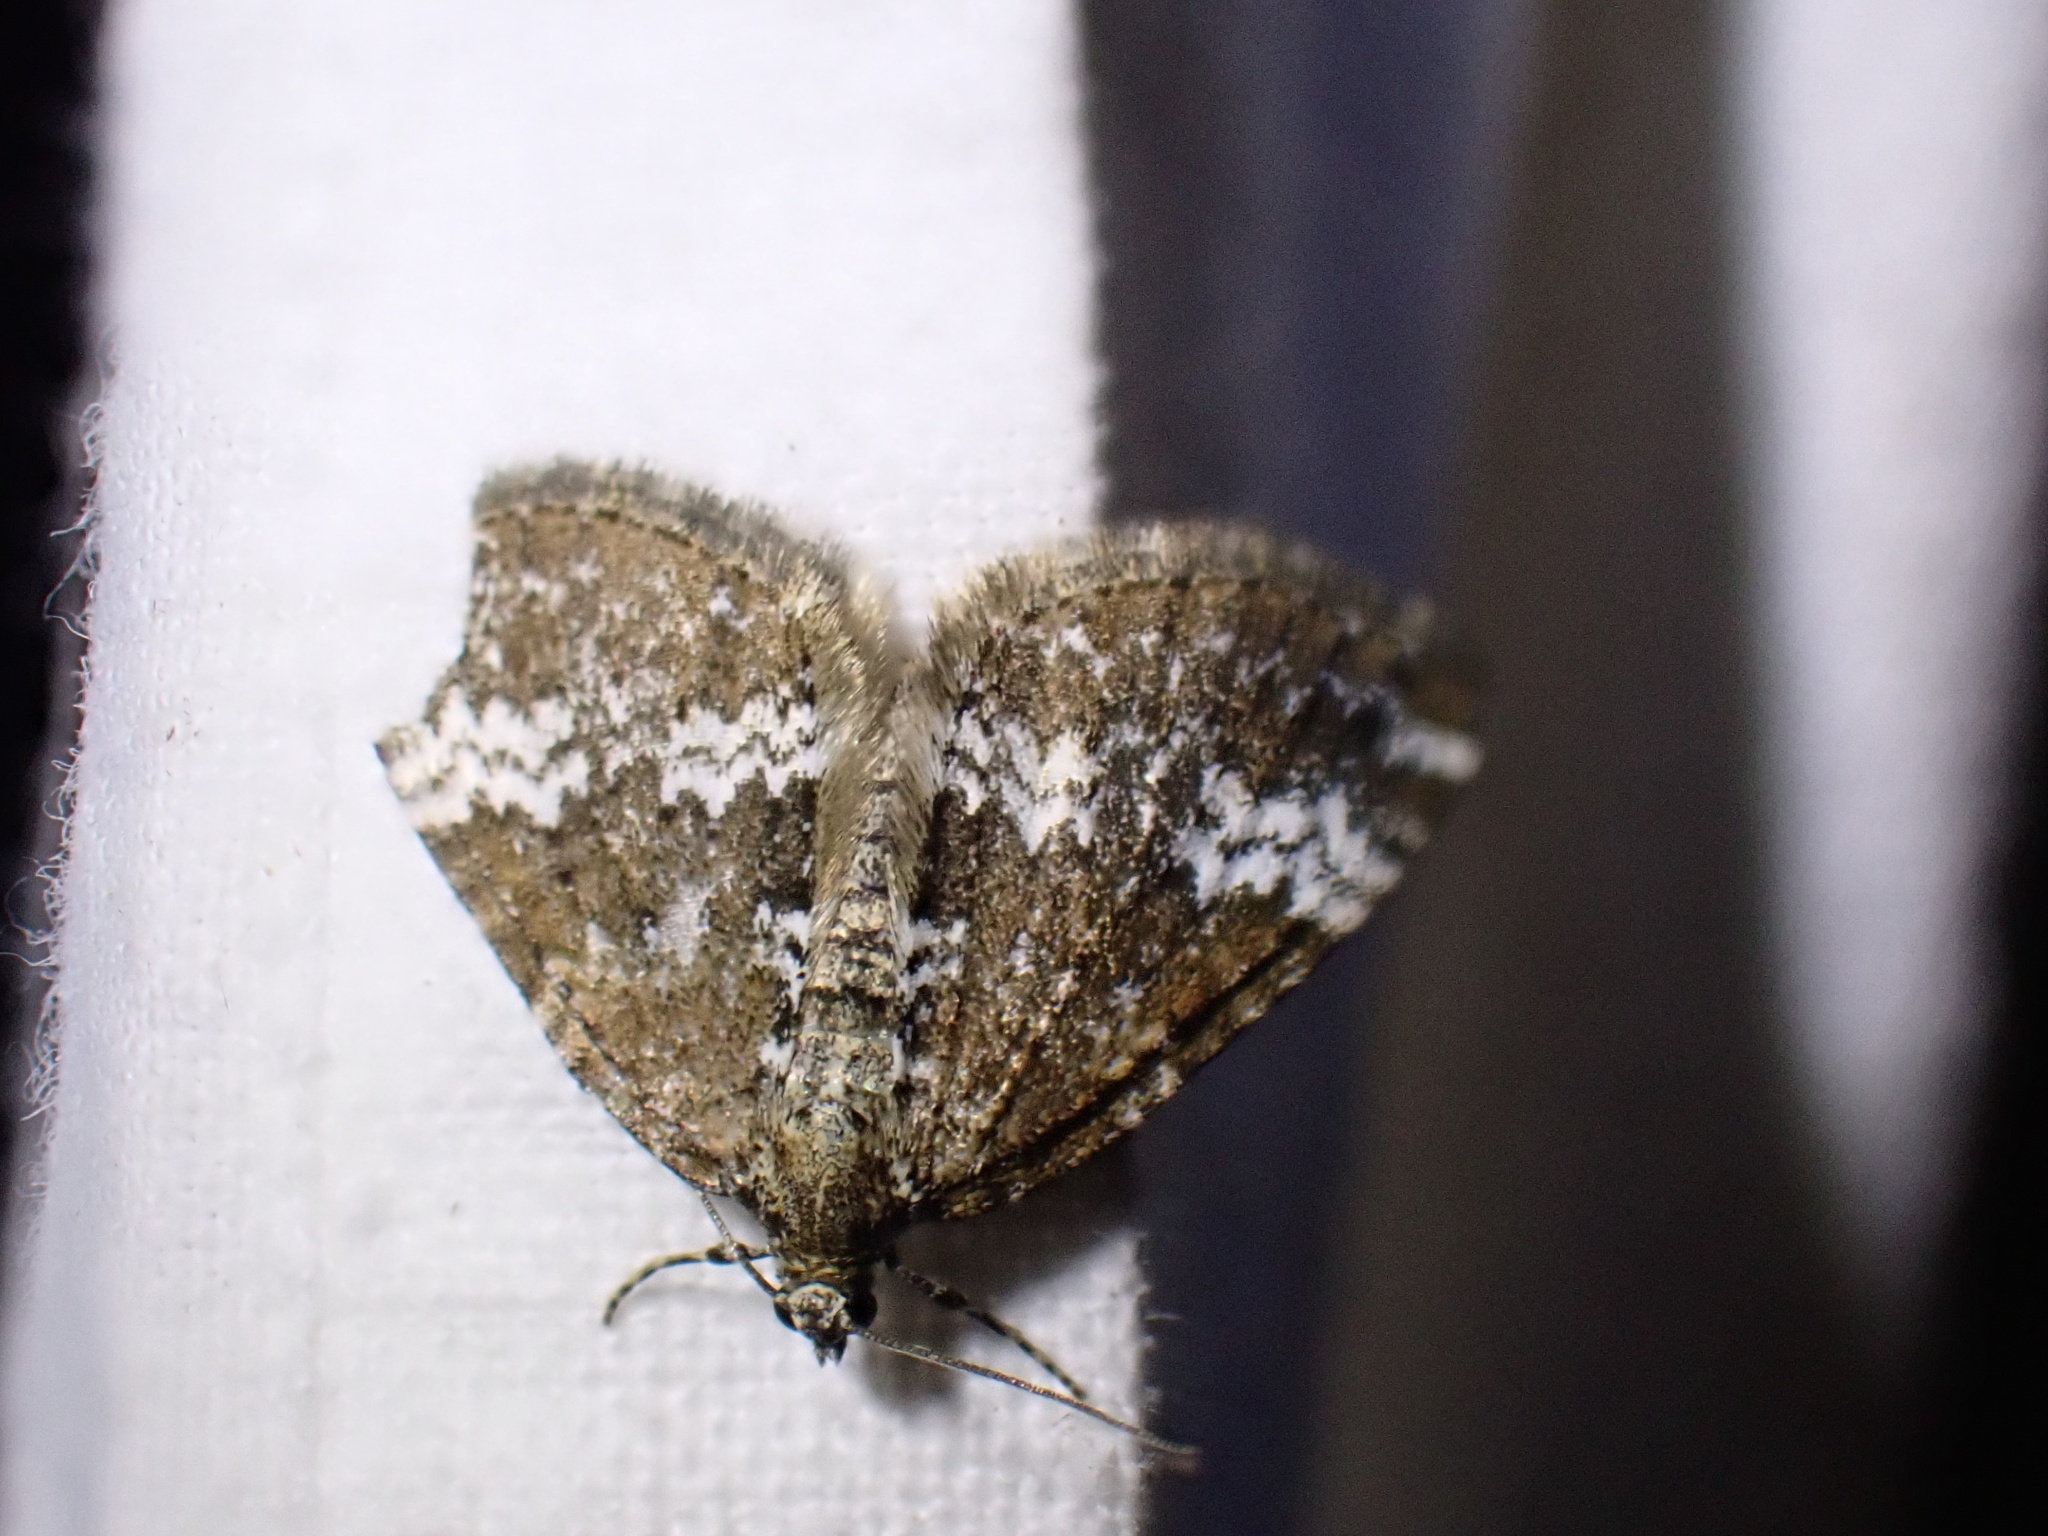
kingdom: Animalia
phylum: Arthropoda
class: Insecta
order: Lepidoptera
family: Geometridae
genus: Perizoma
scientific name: Perizoma alchemillata
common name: Small rivulet
